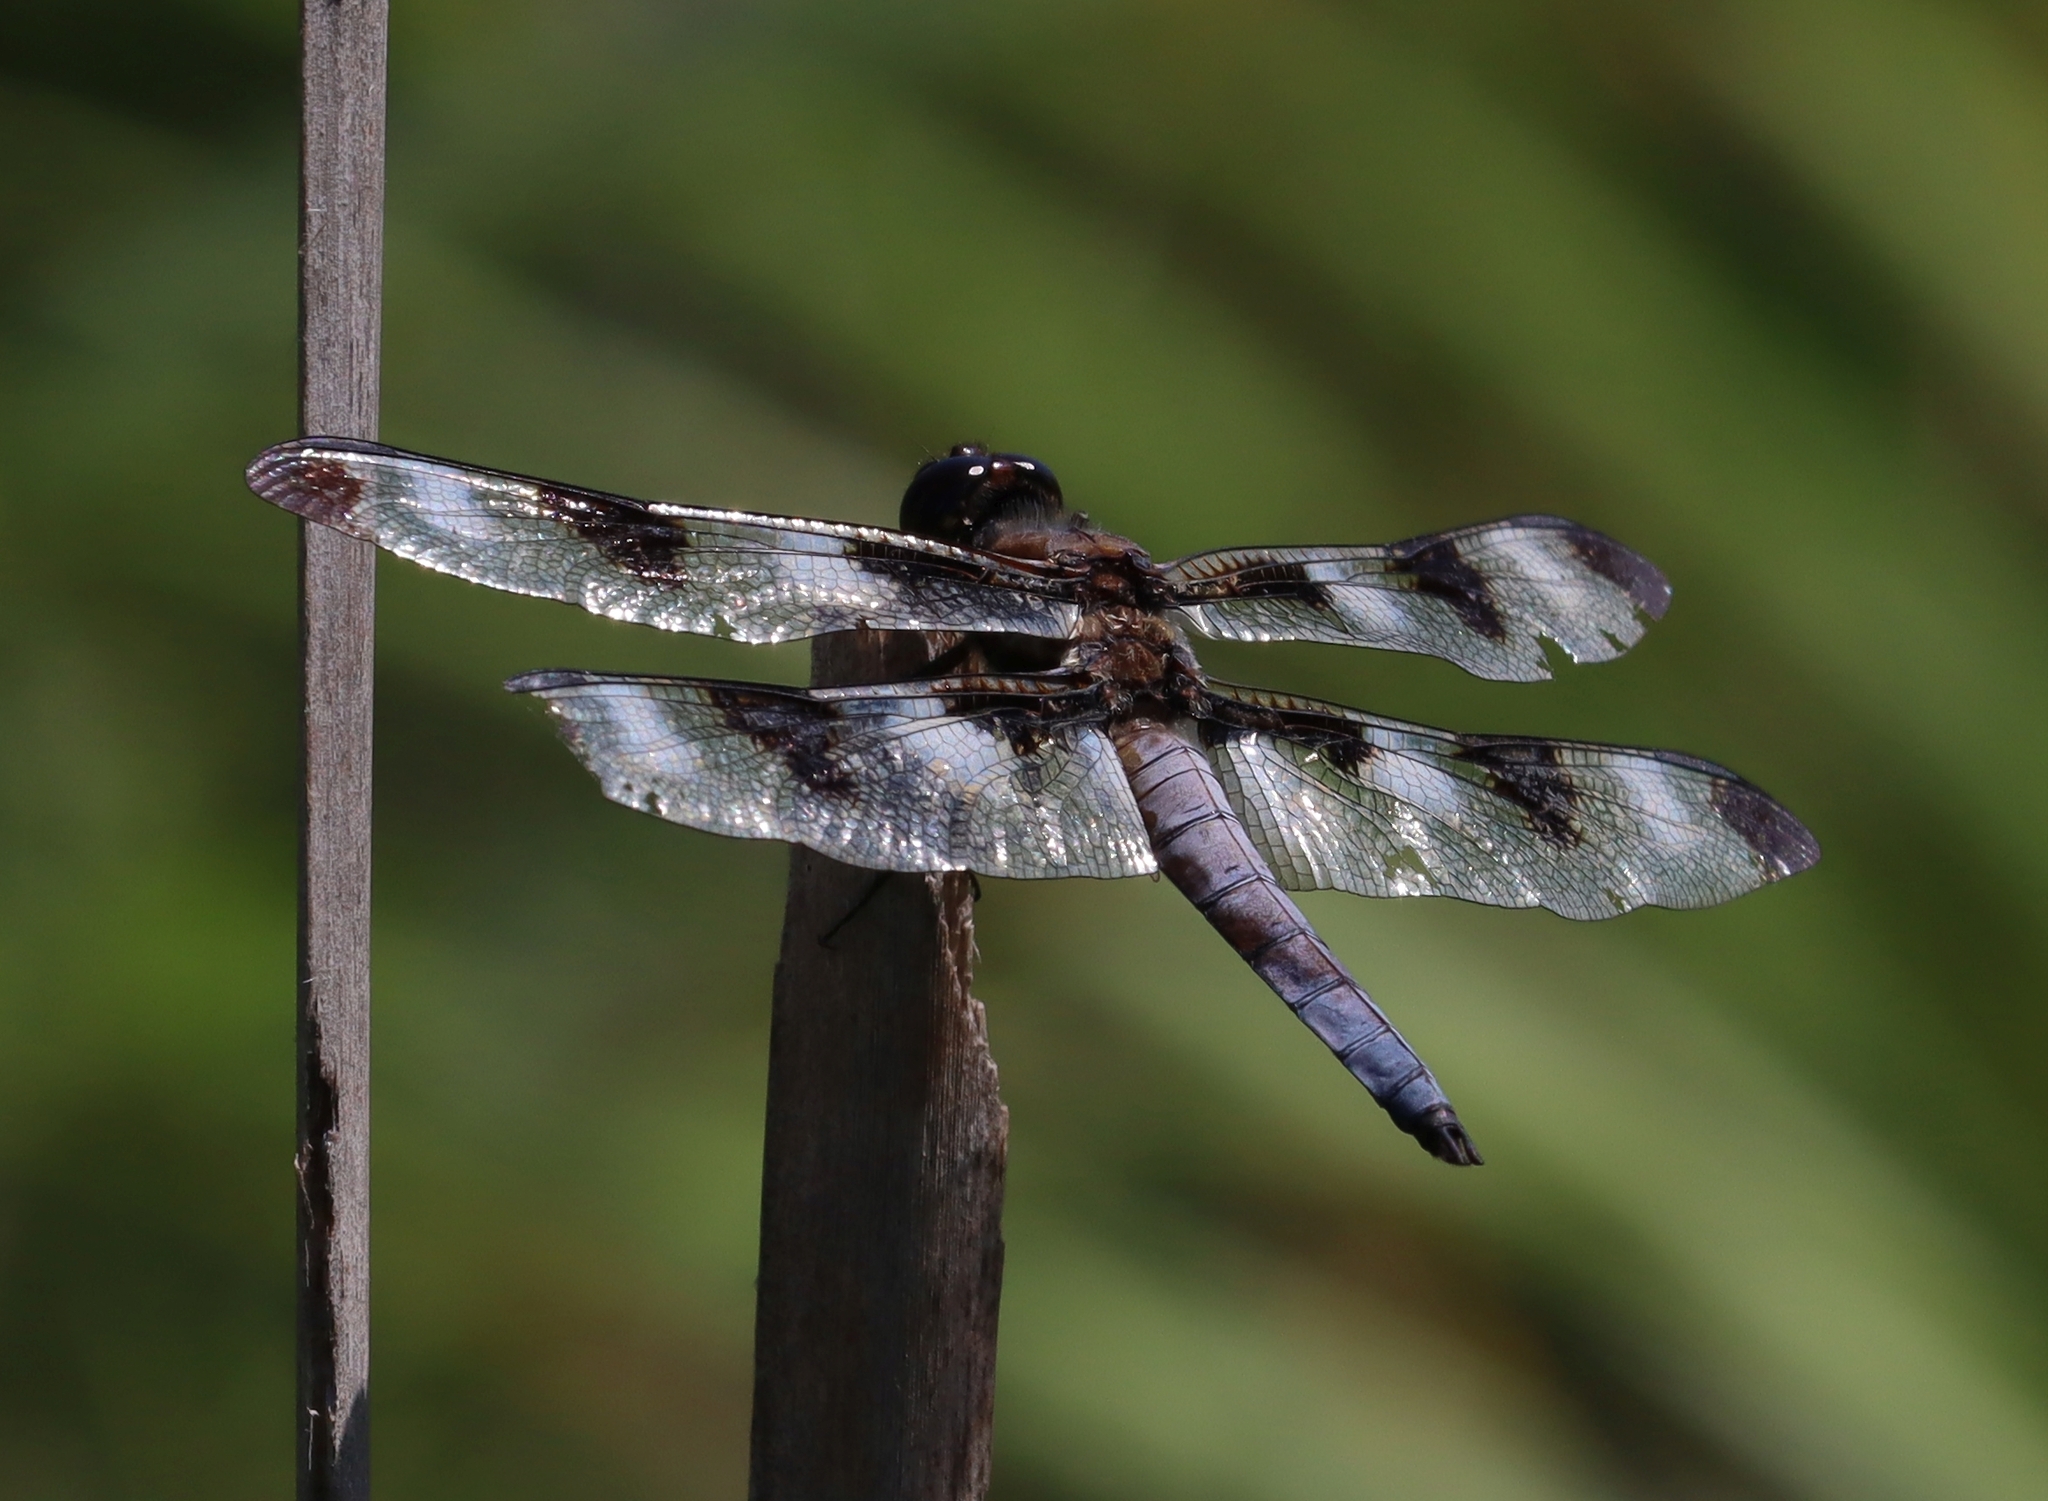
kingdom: Animalia
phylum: Arthropoda
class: Insecta
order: Odonata
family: Libellulidae
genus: Libellula
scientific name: Libellula pulchella
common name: Twelve-spotted skimmer
